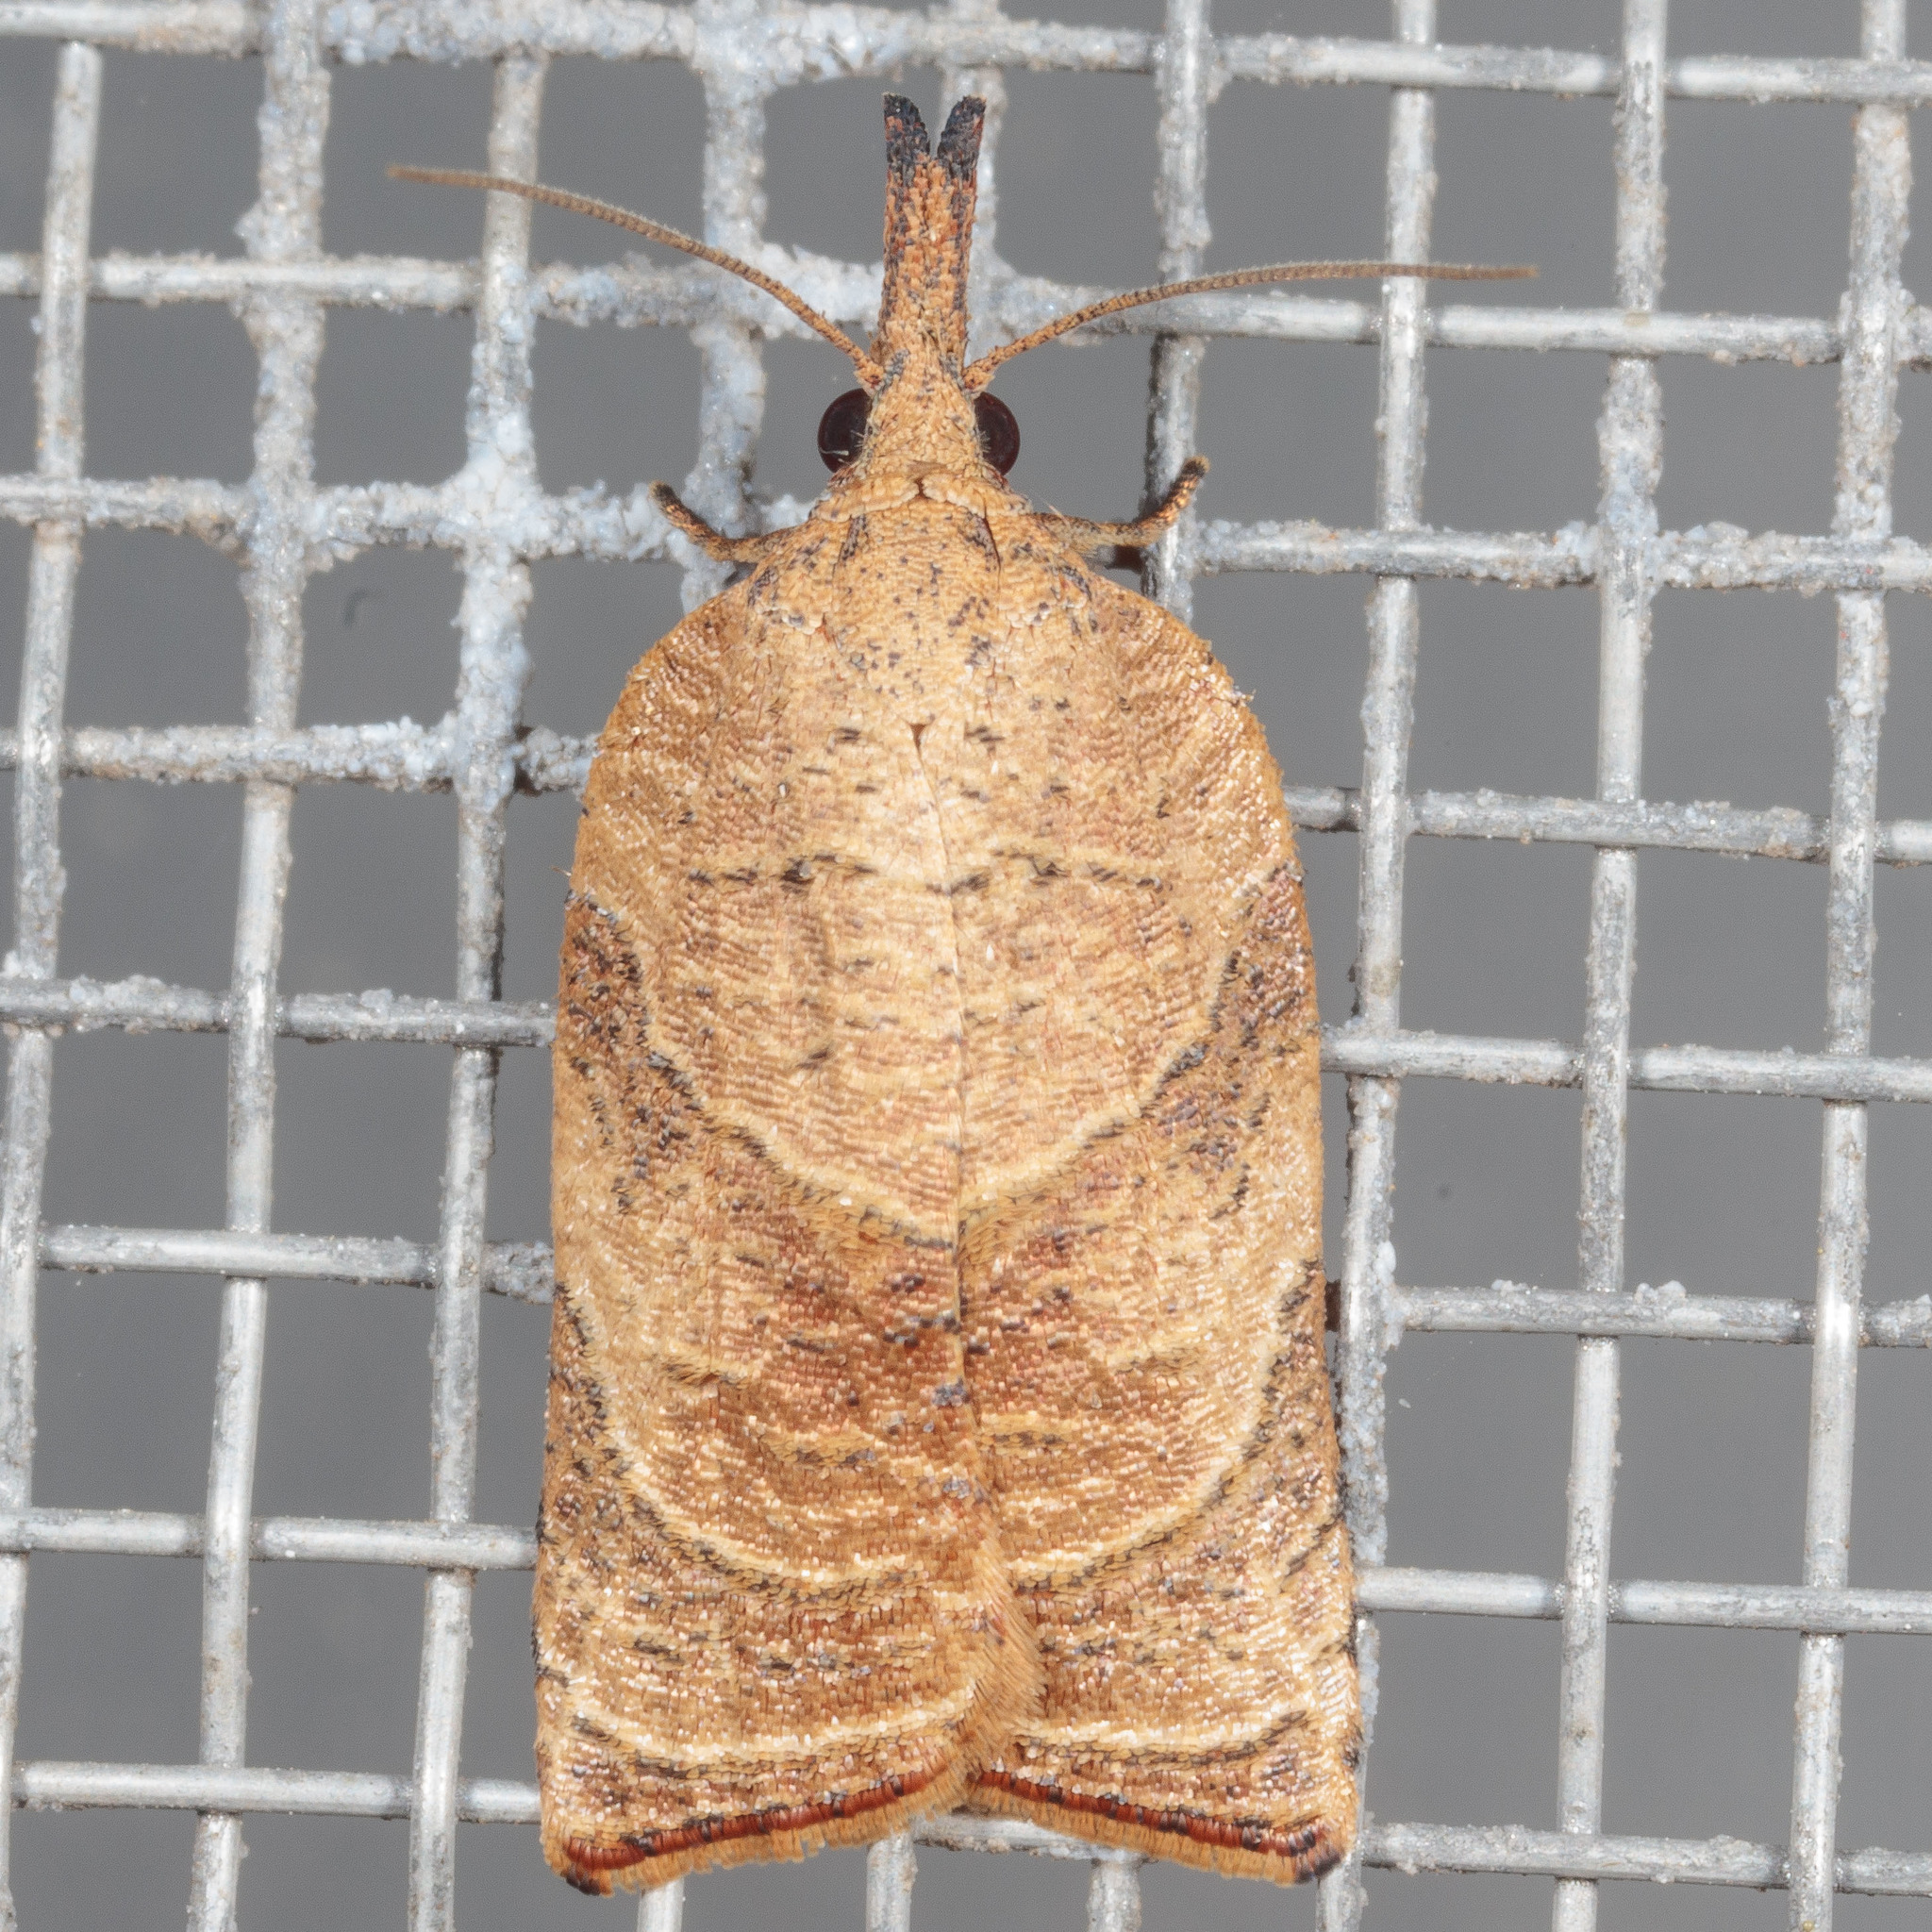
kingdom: Animalia
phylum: Arthropoda
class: Insecta
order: Lepidoptera
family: Tortricidae
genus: Platynota
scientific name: Platynota rostrana
